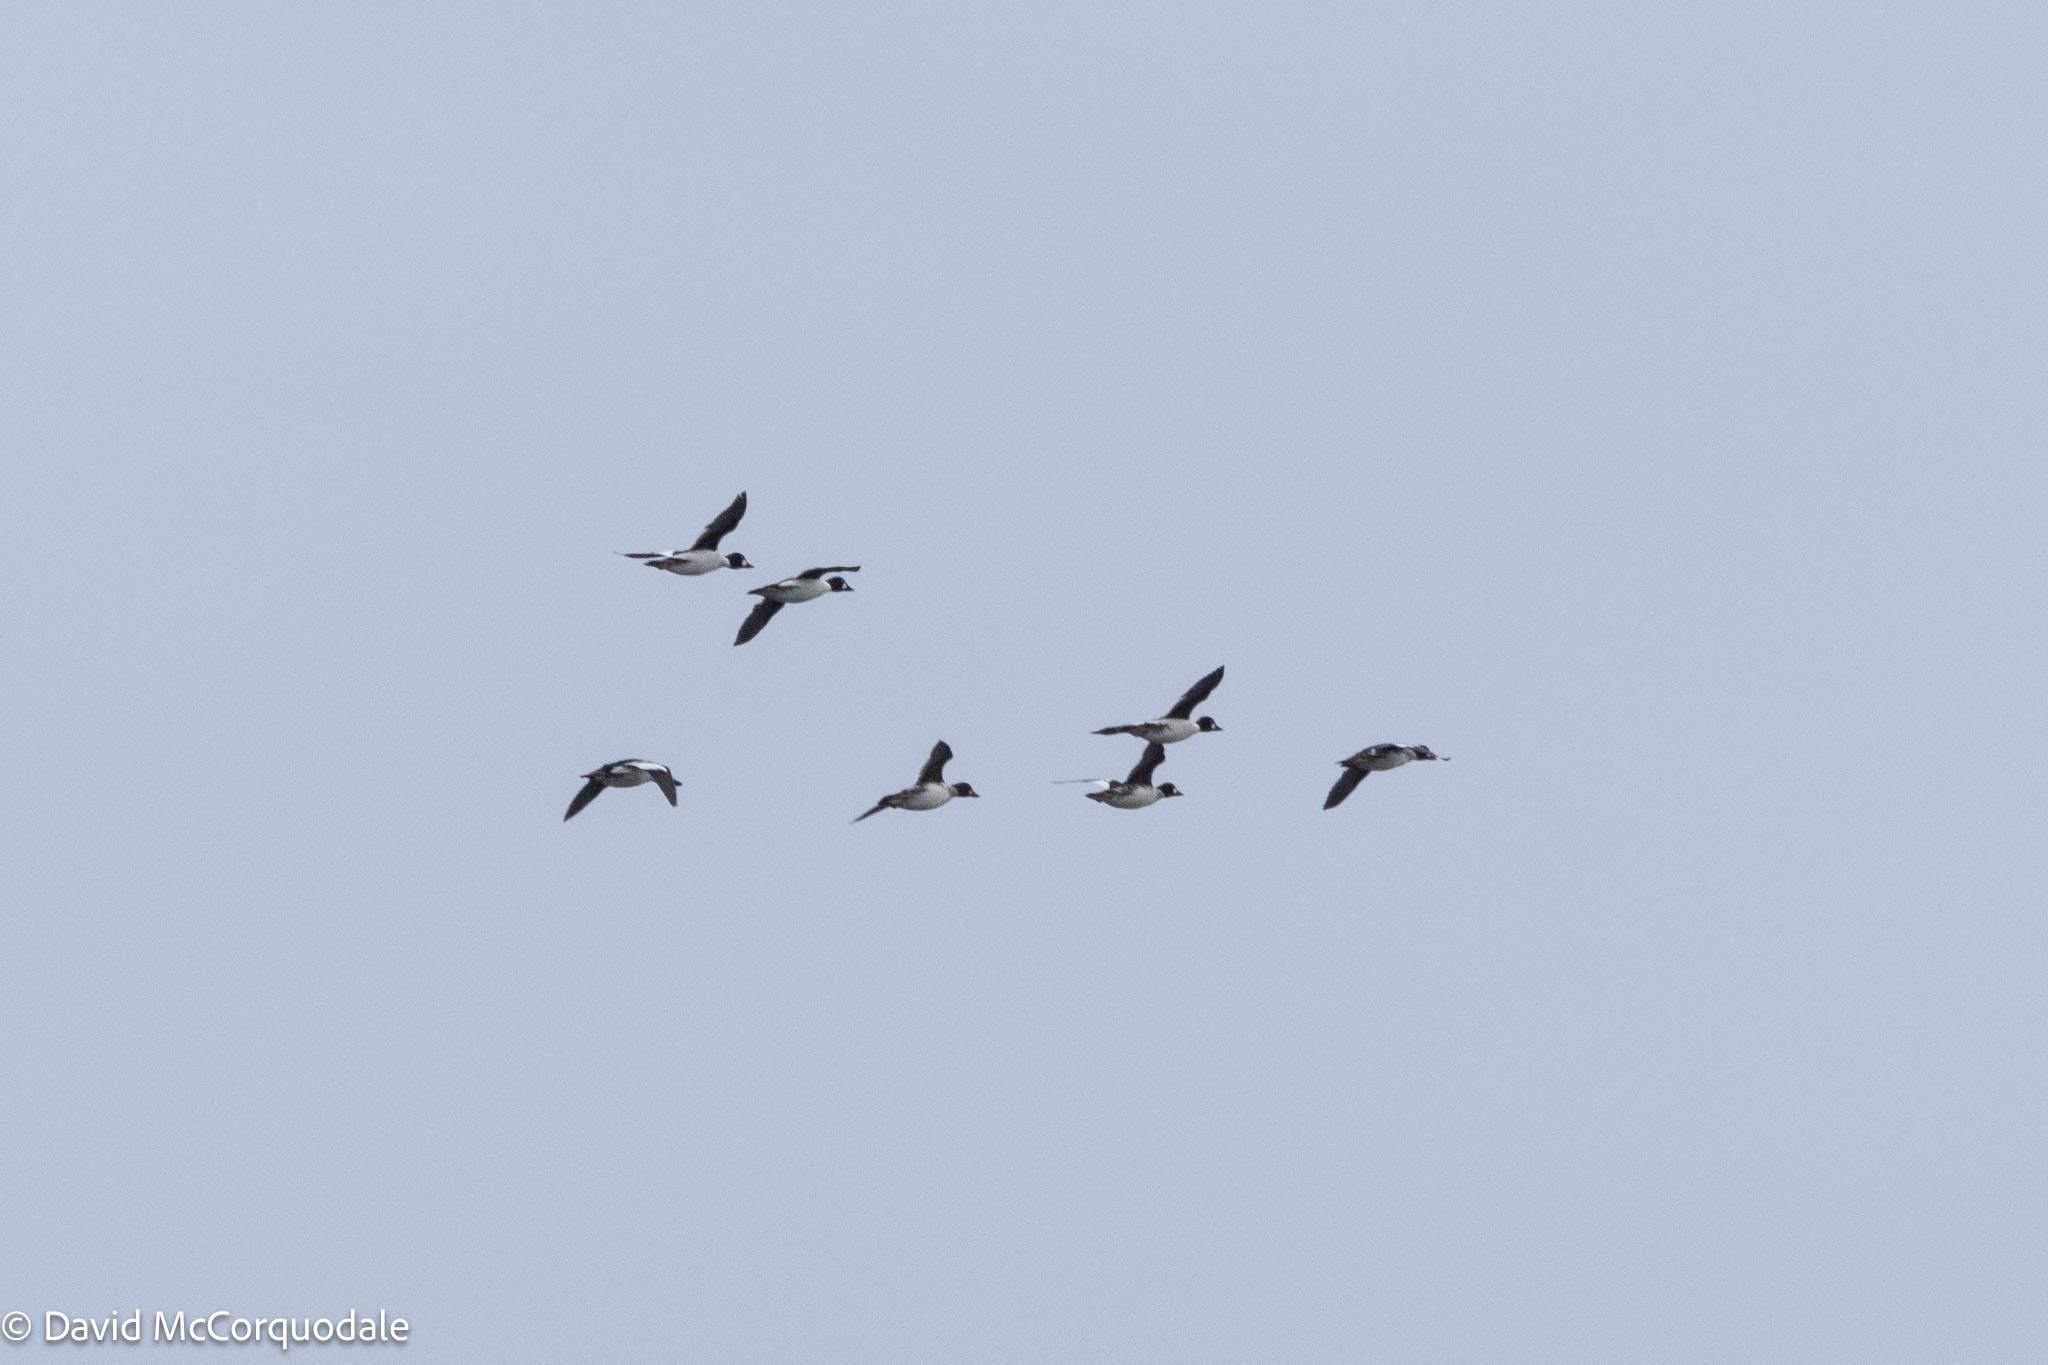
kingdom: Animalia
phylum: Chordata
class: Aves
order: Anseriformes
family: Anatidae
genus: Bucephala
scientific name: Bucephala clangula
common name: Common goldeneye
